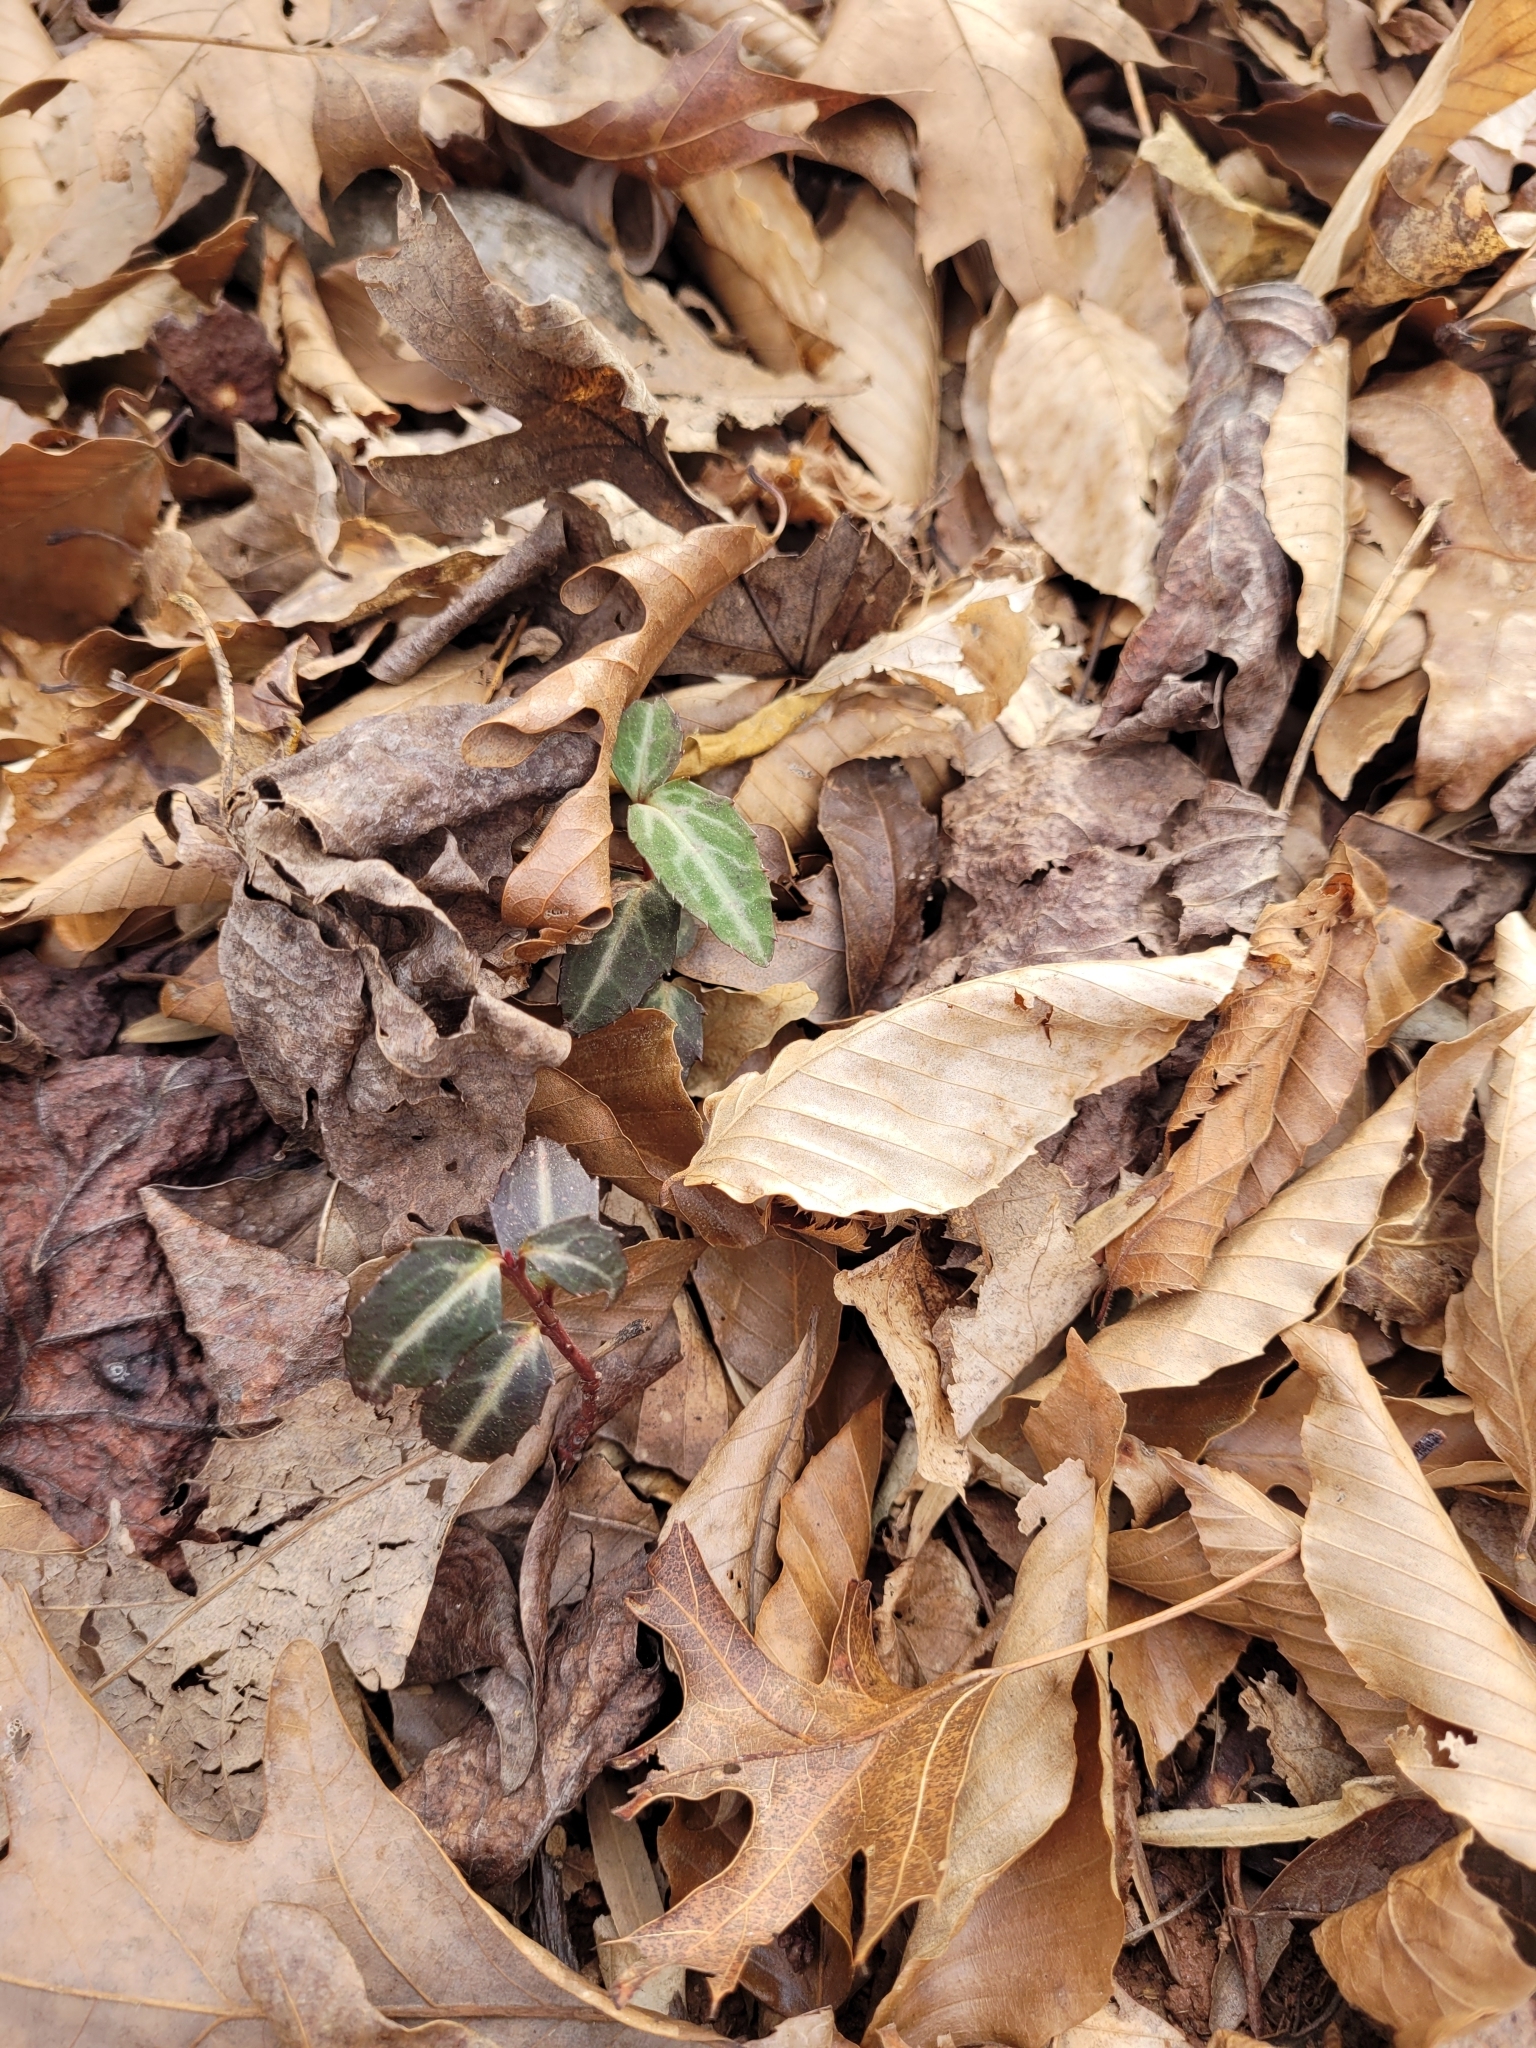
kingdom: Plantae
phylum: Tracheophyta
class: Magnoliopsida
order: Ericales
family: Ericaceae
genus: Chimaphila
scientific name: Chimaphila maculata
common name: Spotted pipsissewa
